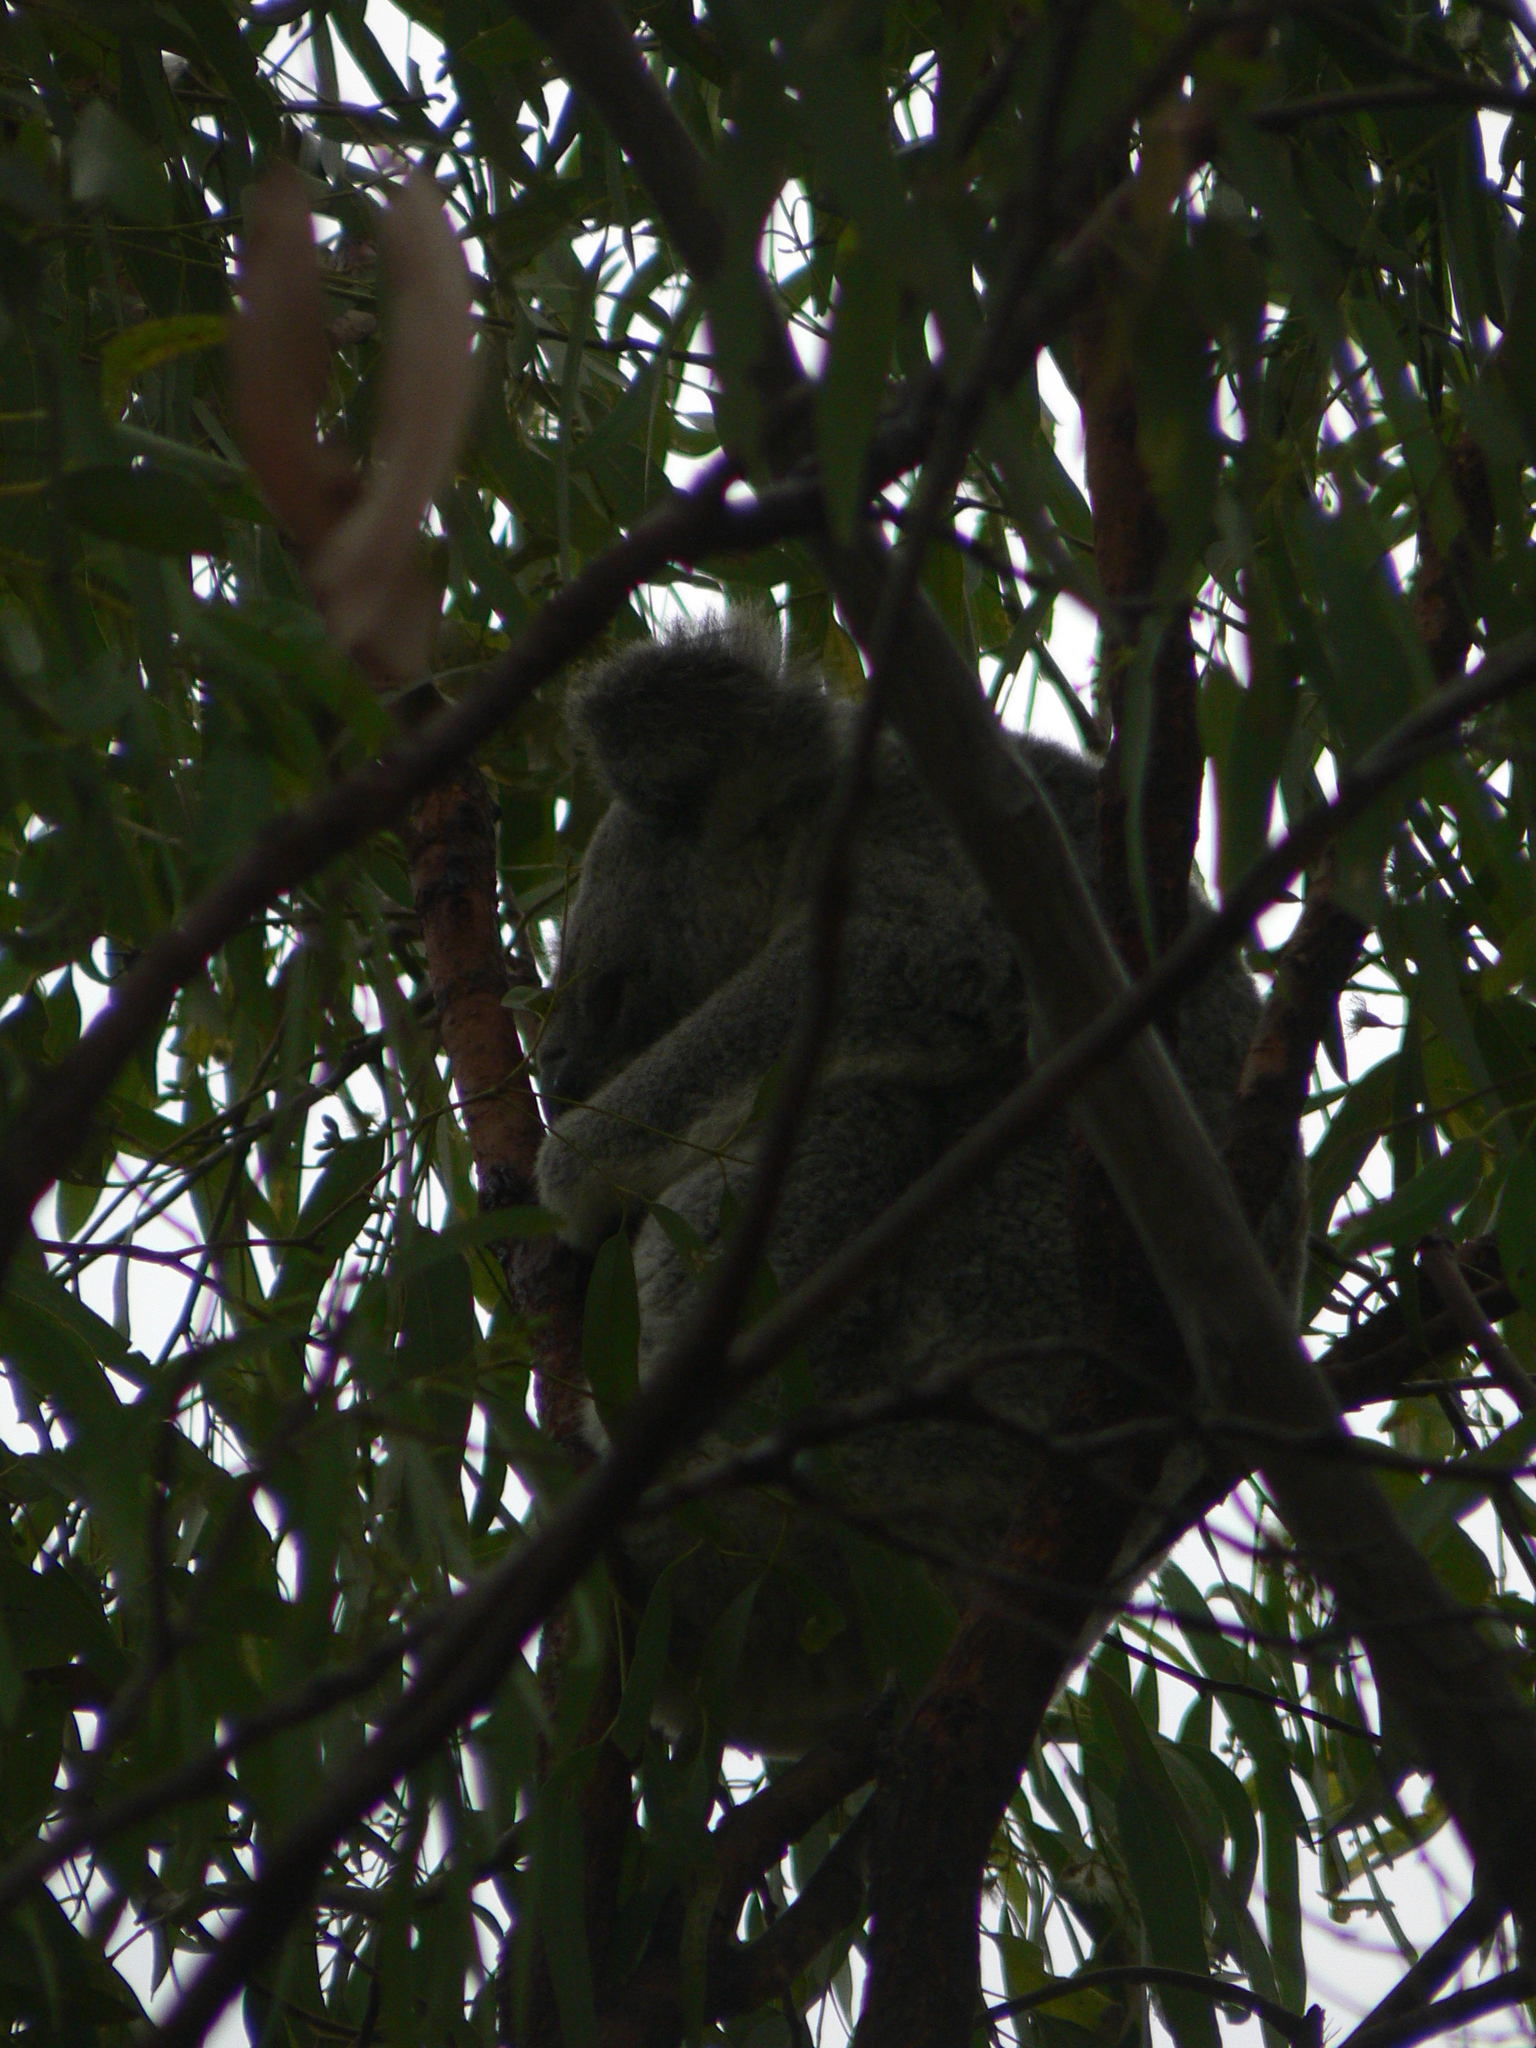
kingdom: Animalia
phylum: Chordata
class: Mammalia
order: Diprotodontia
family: Phascolarctidae
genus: Phascolarctos
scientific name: Phascolarctos cinereus
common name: Koala
